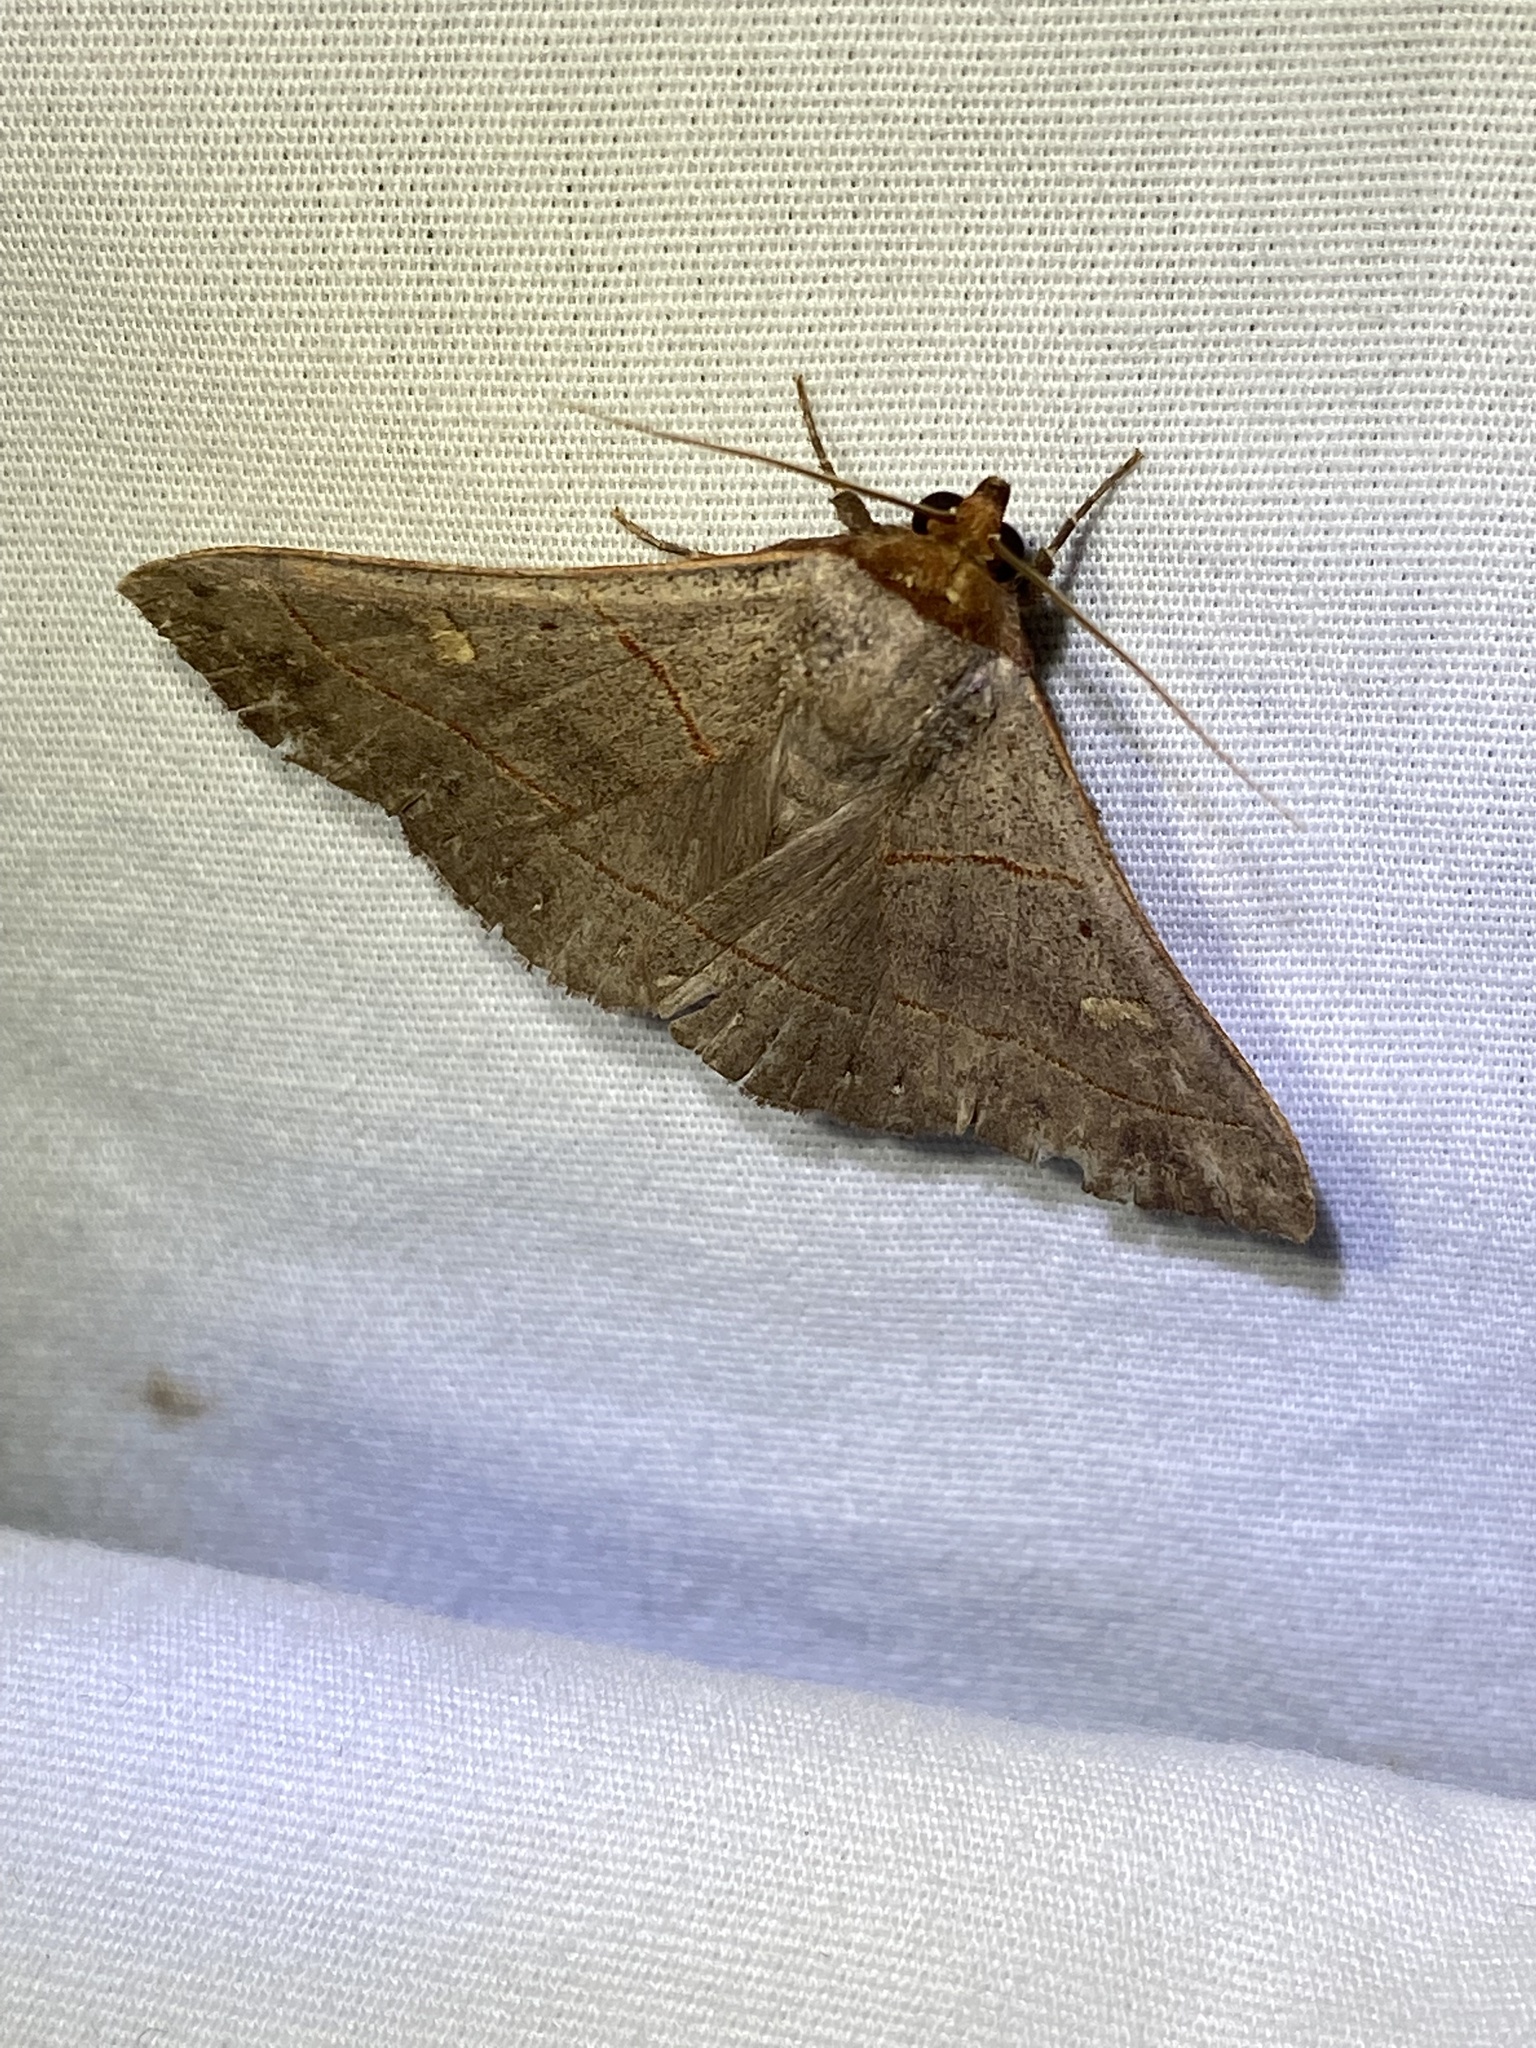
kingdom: Animalia
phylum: Arthropoda
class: Insecta
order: Lepidoptera
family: Erebidae
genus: Panopoda
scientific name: Panopoda rufimargo
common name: Red-lined panopoda moth
